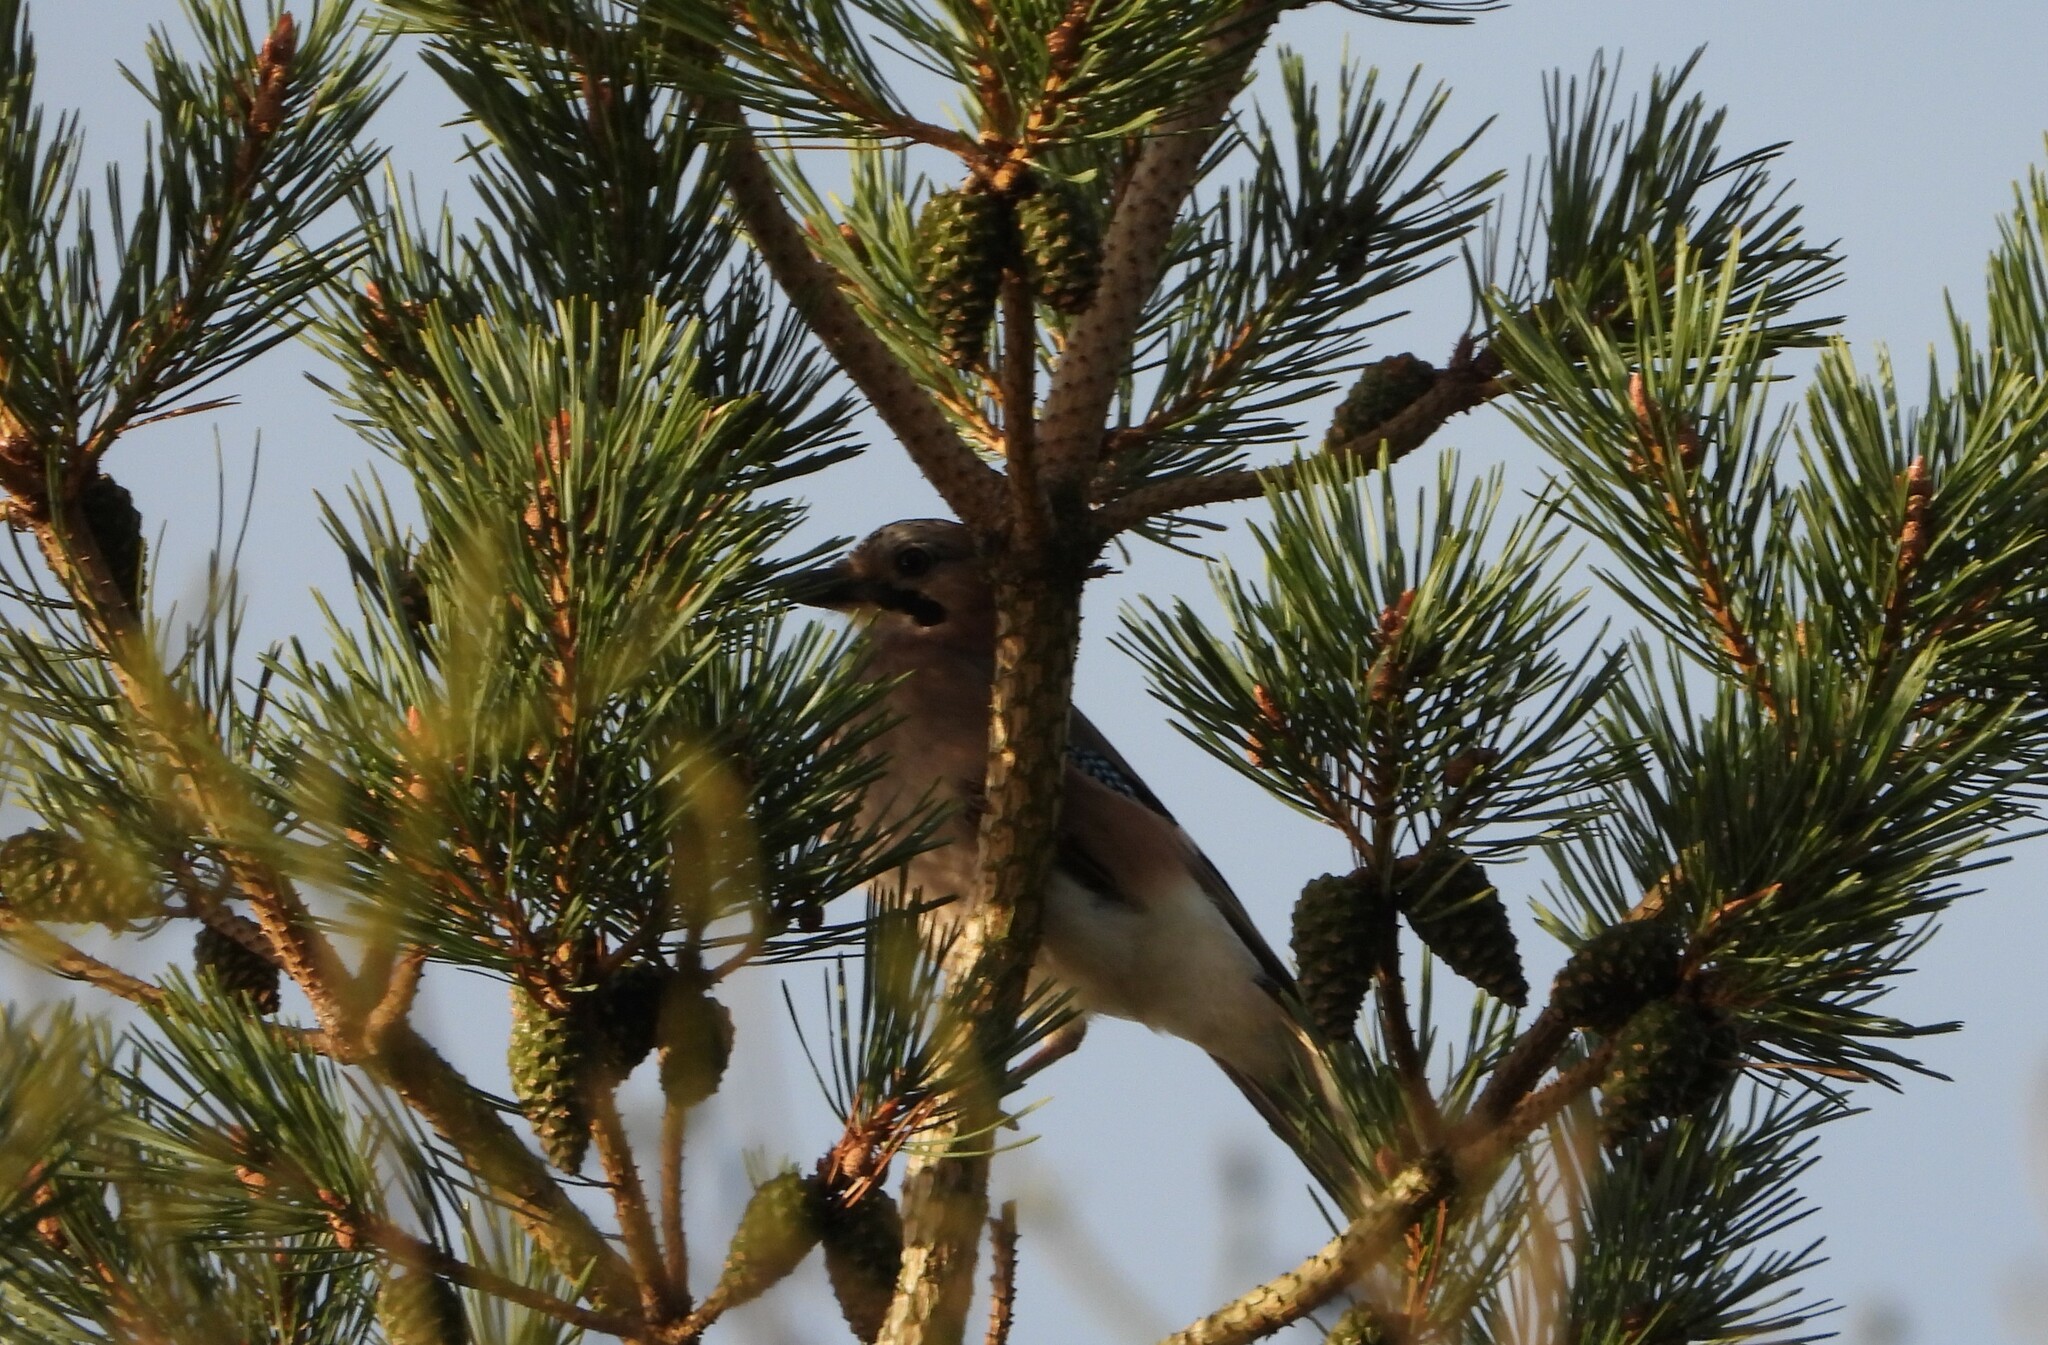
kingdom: Animalia
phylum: Chordata
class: Aves
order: Passeriformes
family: Corvidae
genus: Garrulus
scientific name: Garrulus glandarius
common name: Eurasian jay
